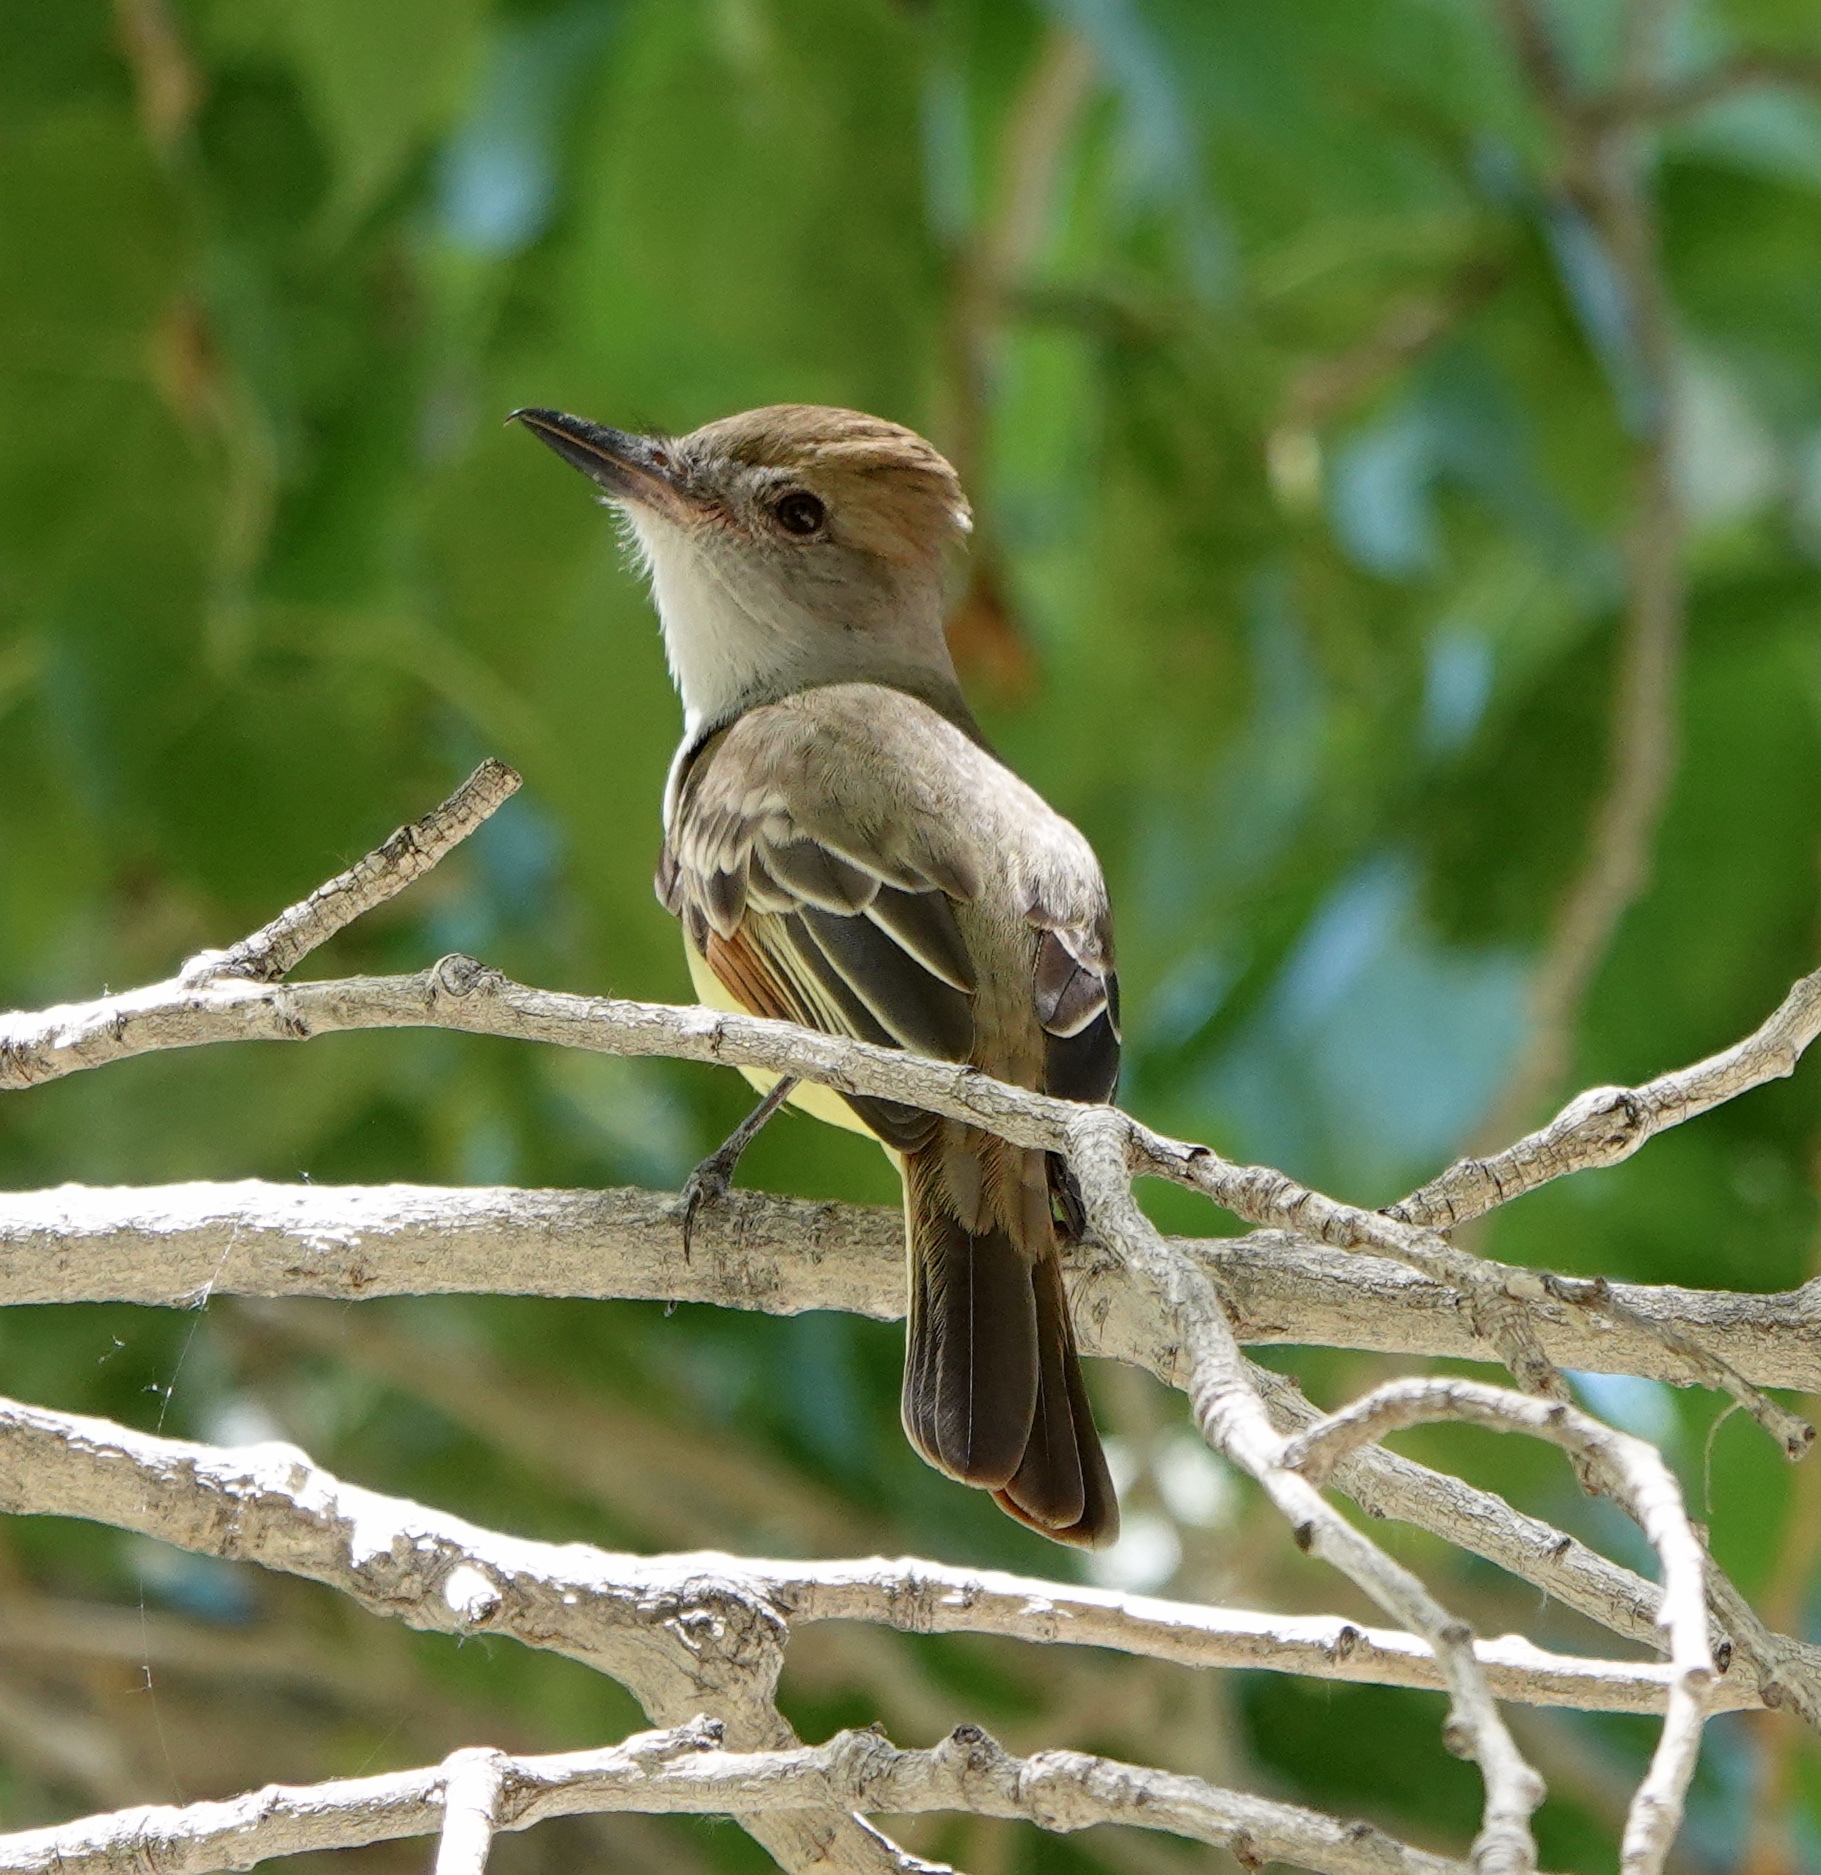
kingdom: Animalia
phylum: Chordata
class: Aves
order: Passeriformes
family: Tyrannidae
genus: Myiarchus
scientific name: Myiarchus tyrannulus
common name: Brown-crested flycatcher
